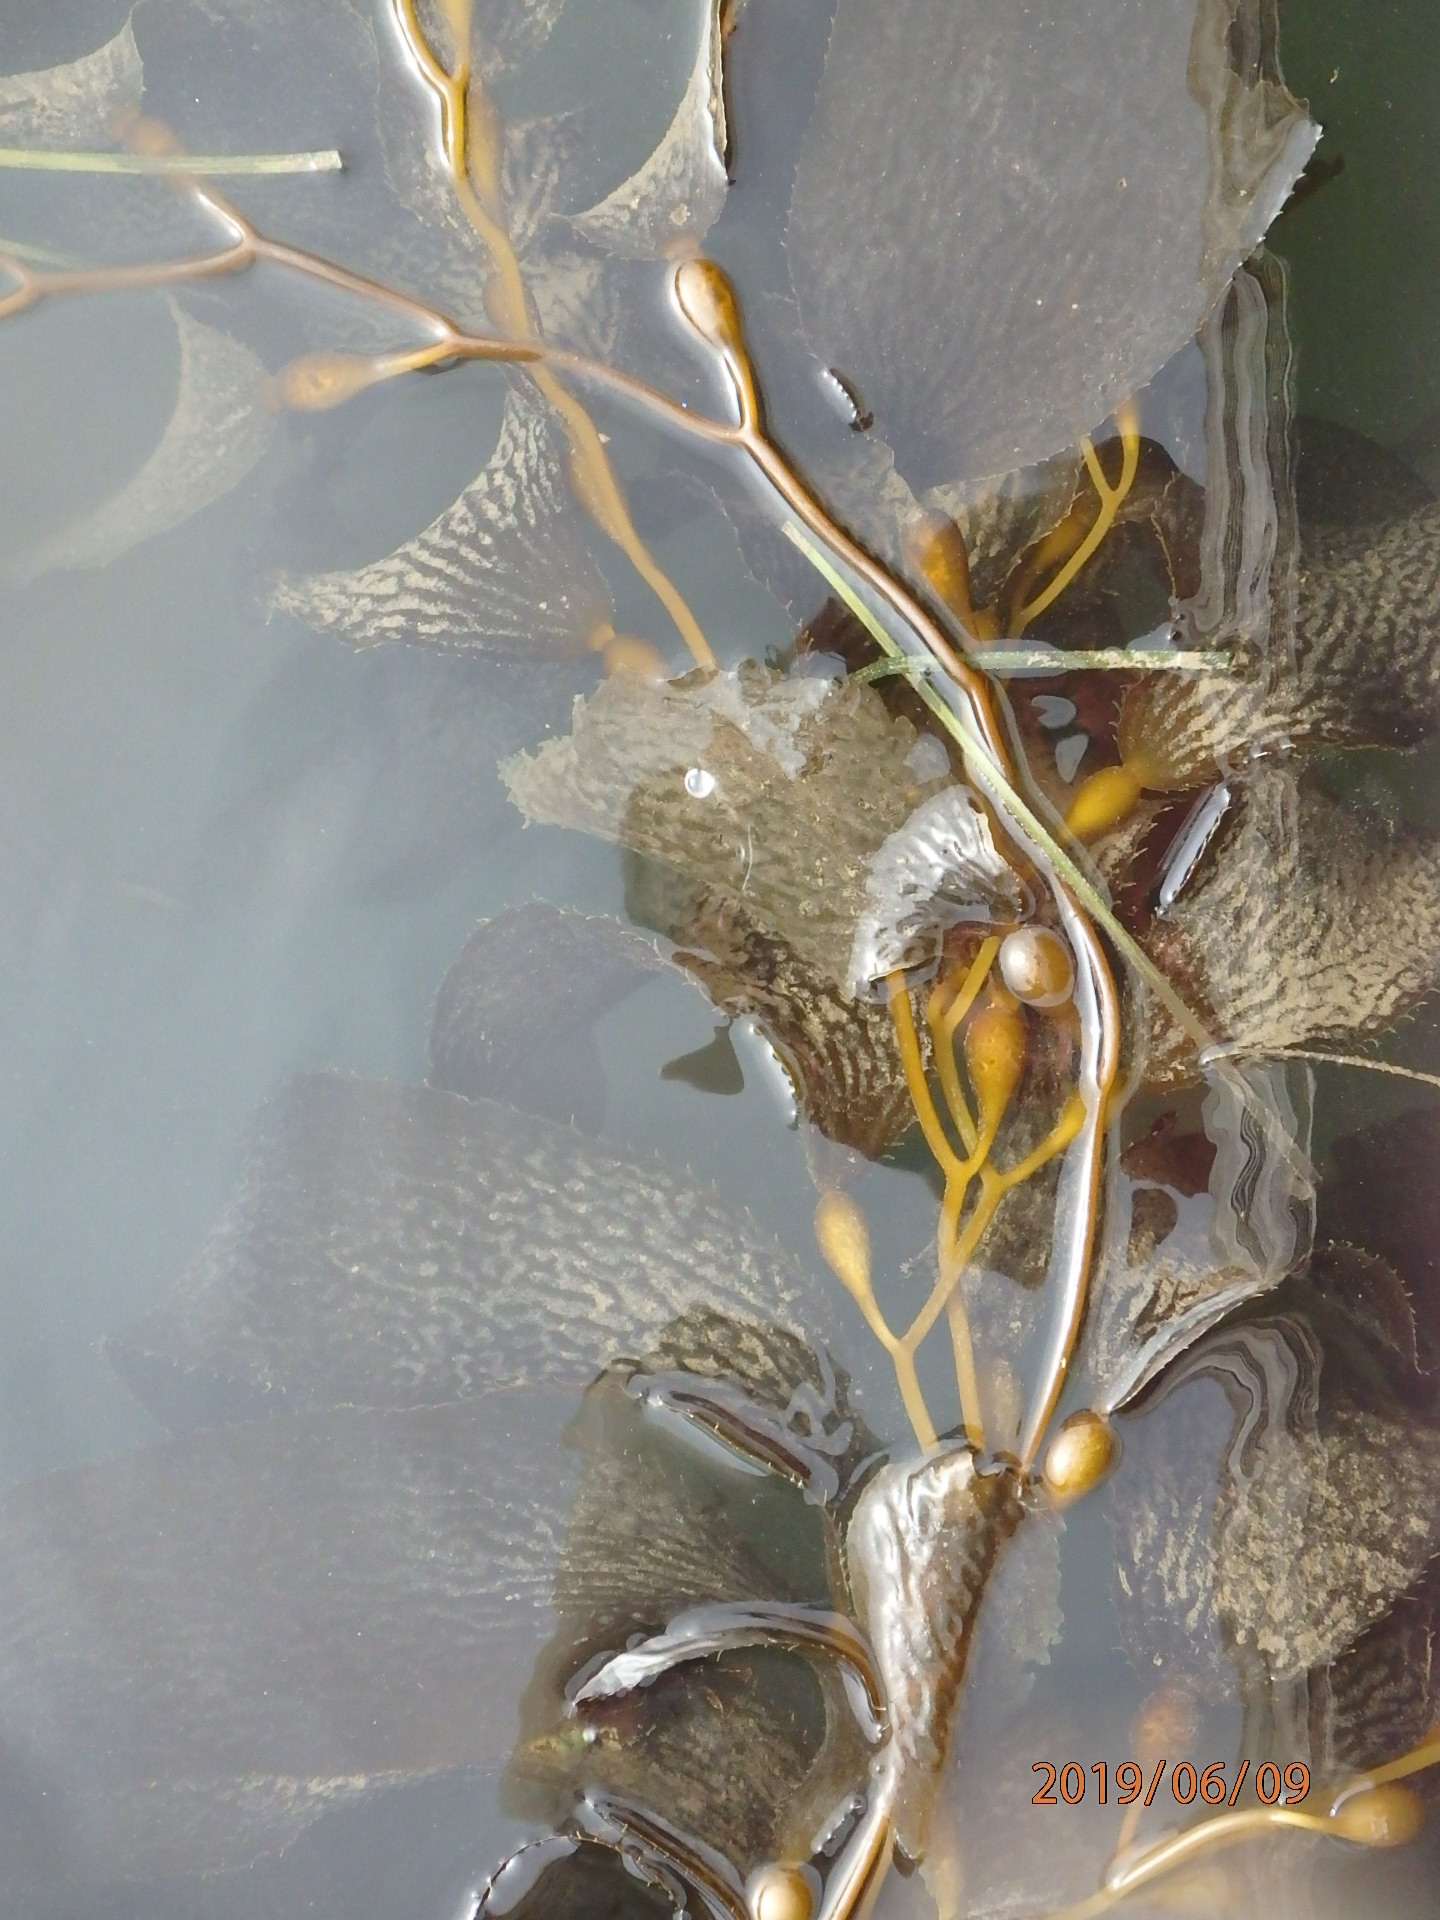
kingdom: Chromista
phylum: Ochrophyta
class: Phaeophyceae
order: Laminariales
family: Laminariaceae
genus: Macrocystis
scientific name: Macrocystis pyrifera
